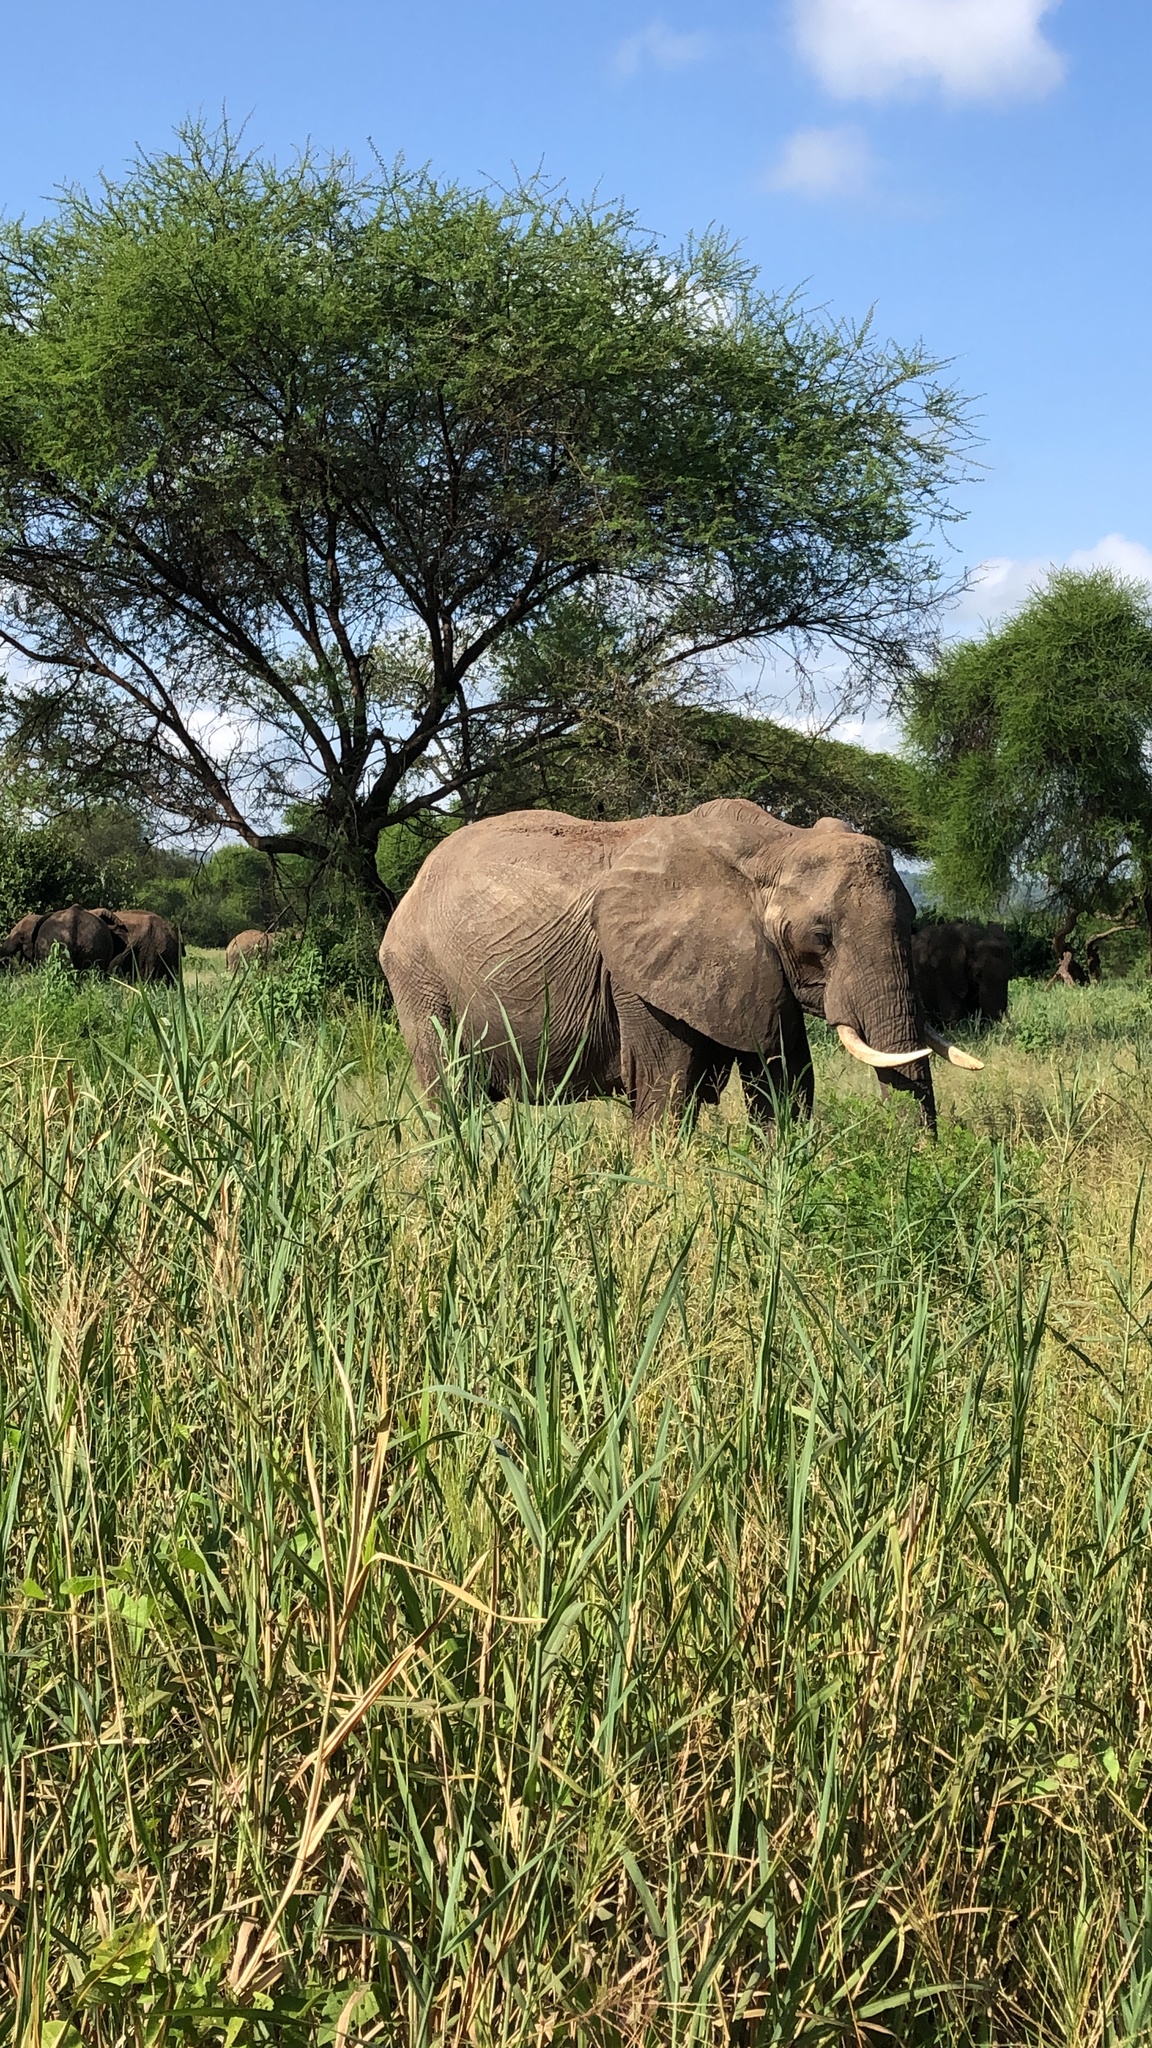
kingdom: Animalia
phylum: Chordata
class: Mammalia
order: Proboscidea
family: Elephantidae
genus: Loxodonta
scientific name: Loxodonta africana
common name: African elephant
